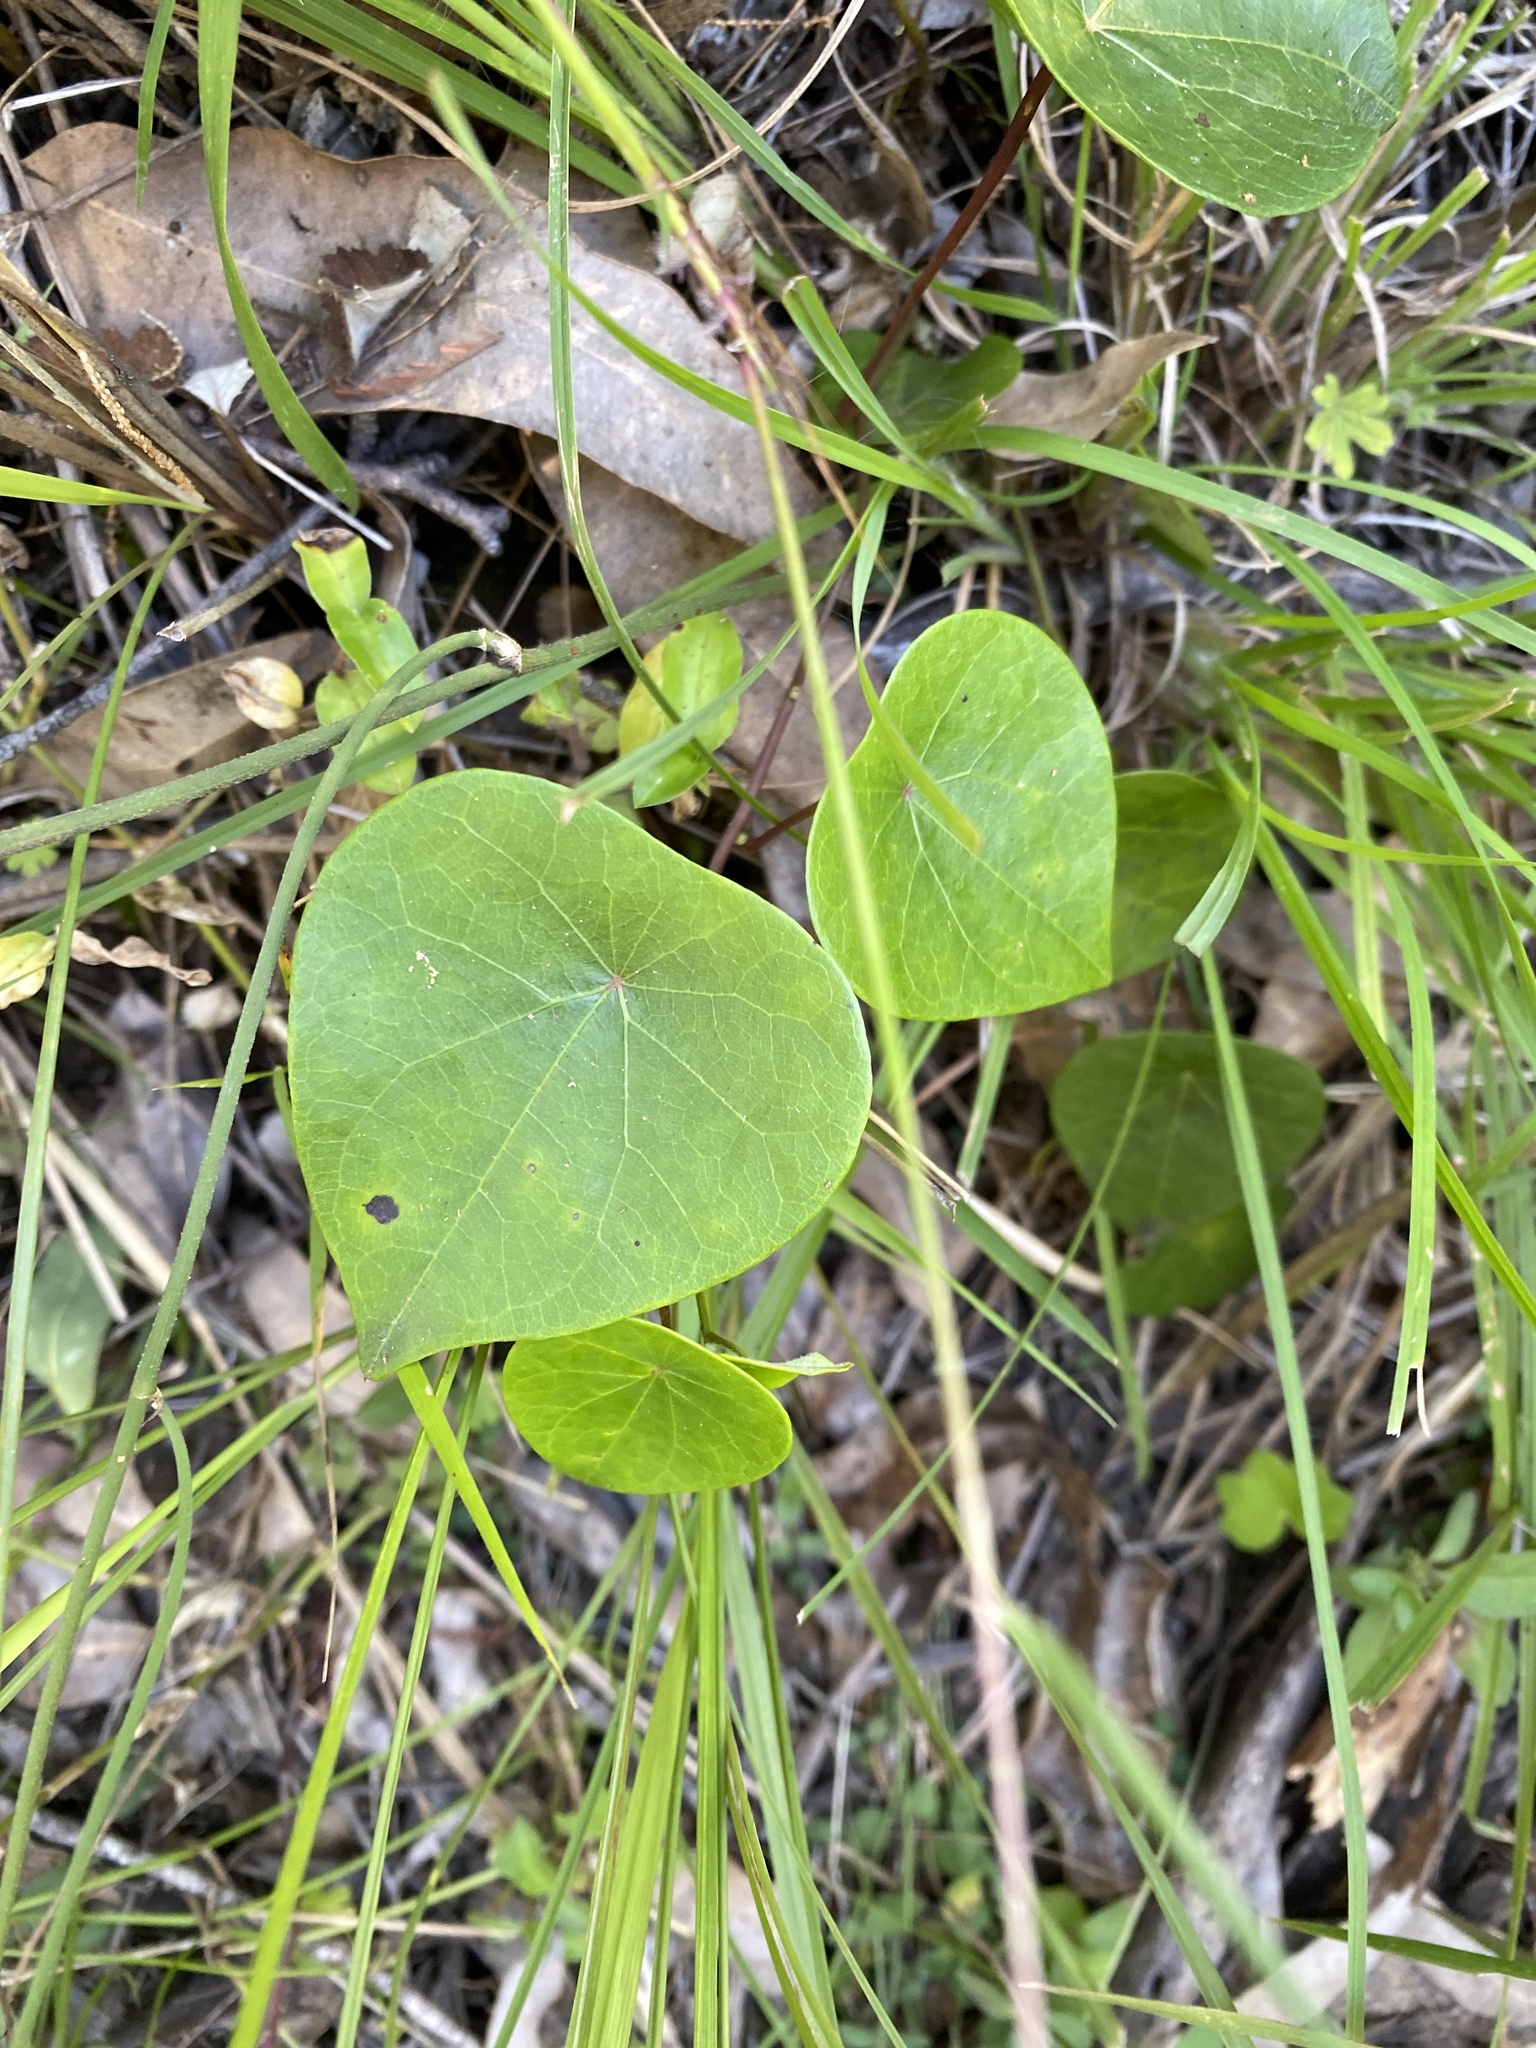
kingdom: Plantae
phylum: Tracheophyta
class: Magnoliopsida
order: Ranunculales
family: Menispermaceae
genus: Stephania
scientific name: Stephania japonica
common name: Snake vine
